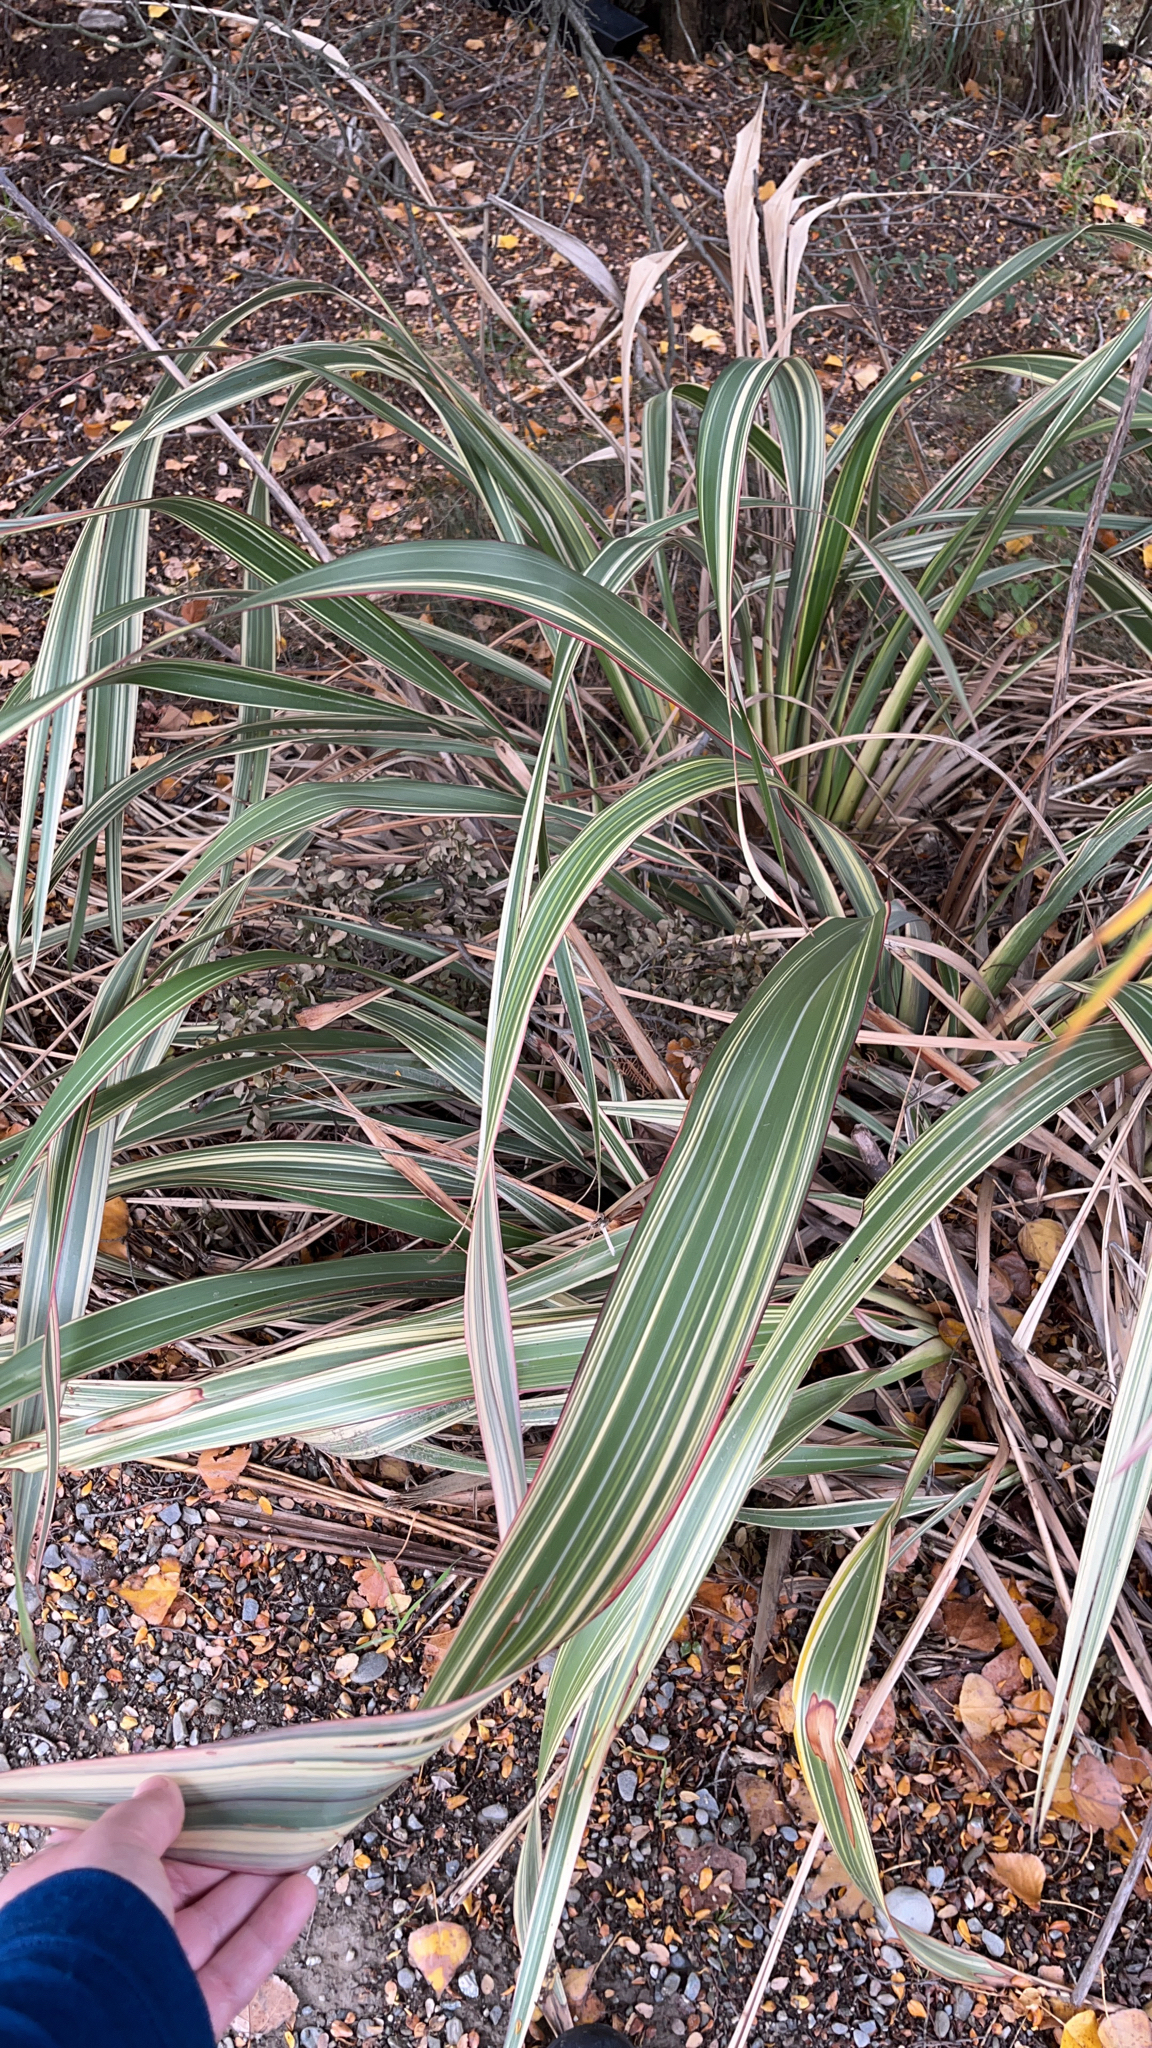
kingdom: Plantae
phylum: Tracheophyta
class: Liliopsida
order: Asparagales
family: Asphodelaceae
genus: Phormium
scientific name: Phormium colensoi
